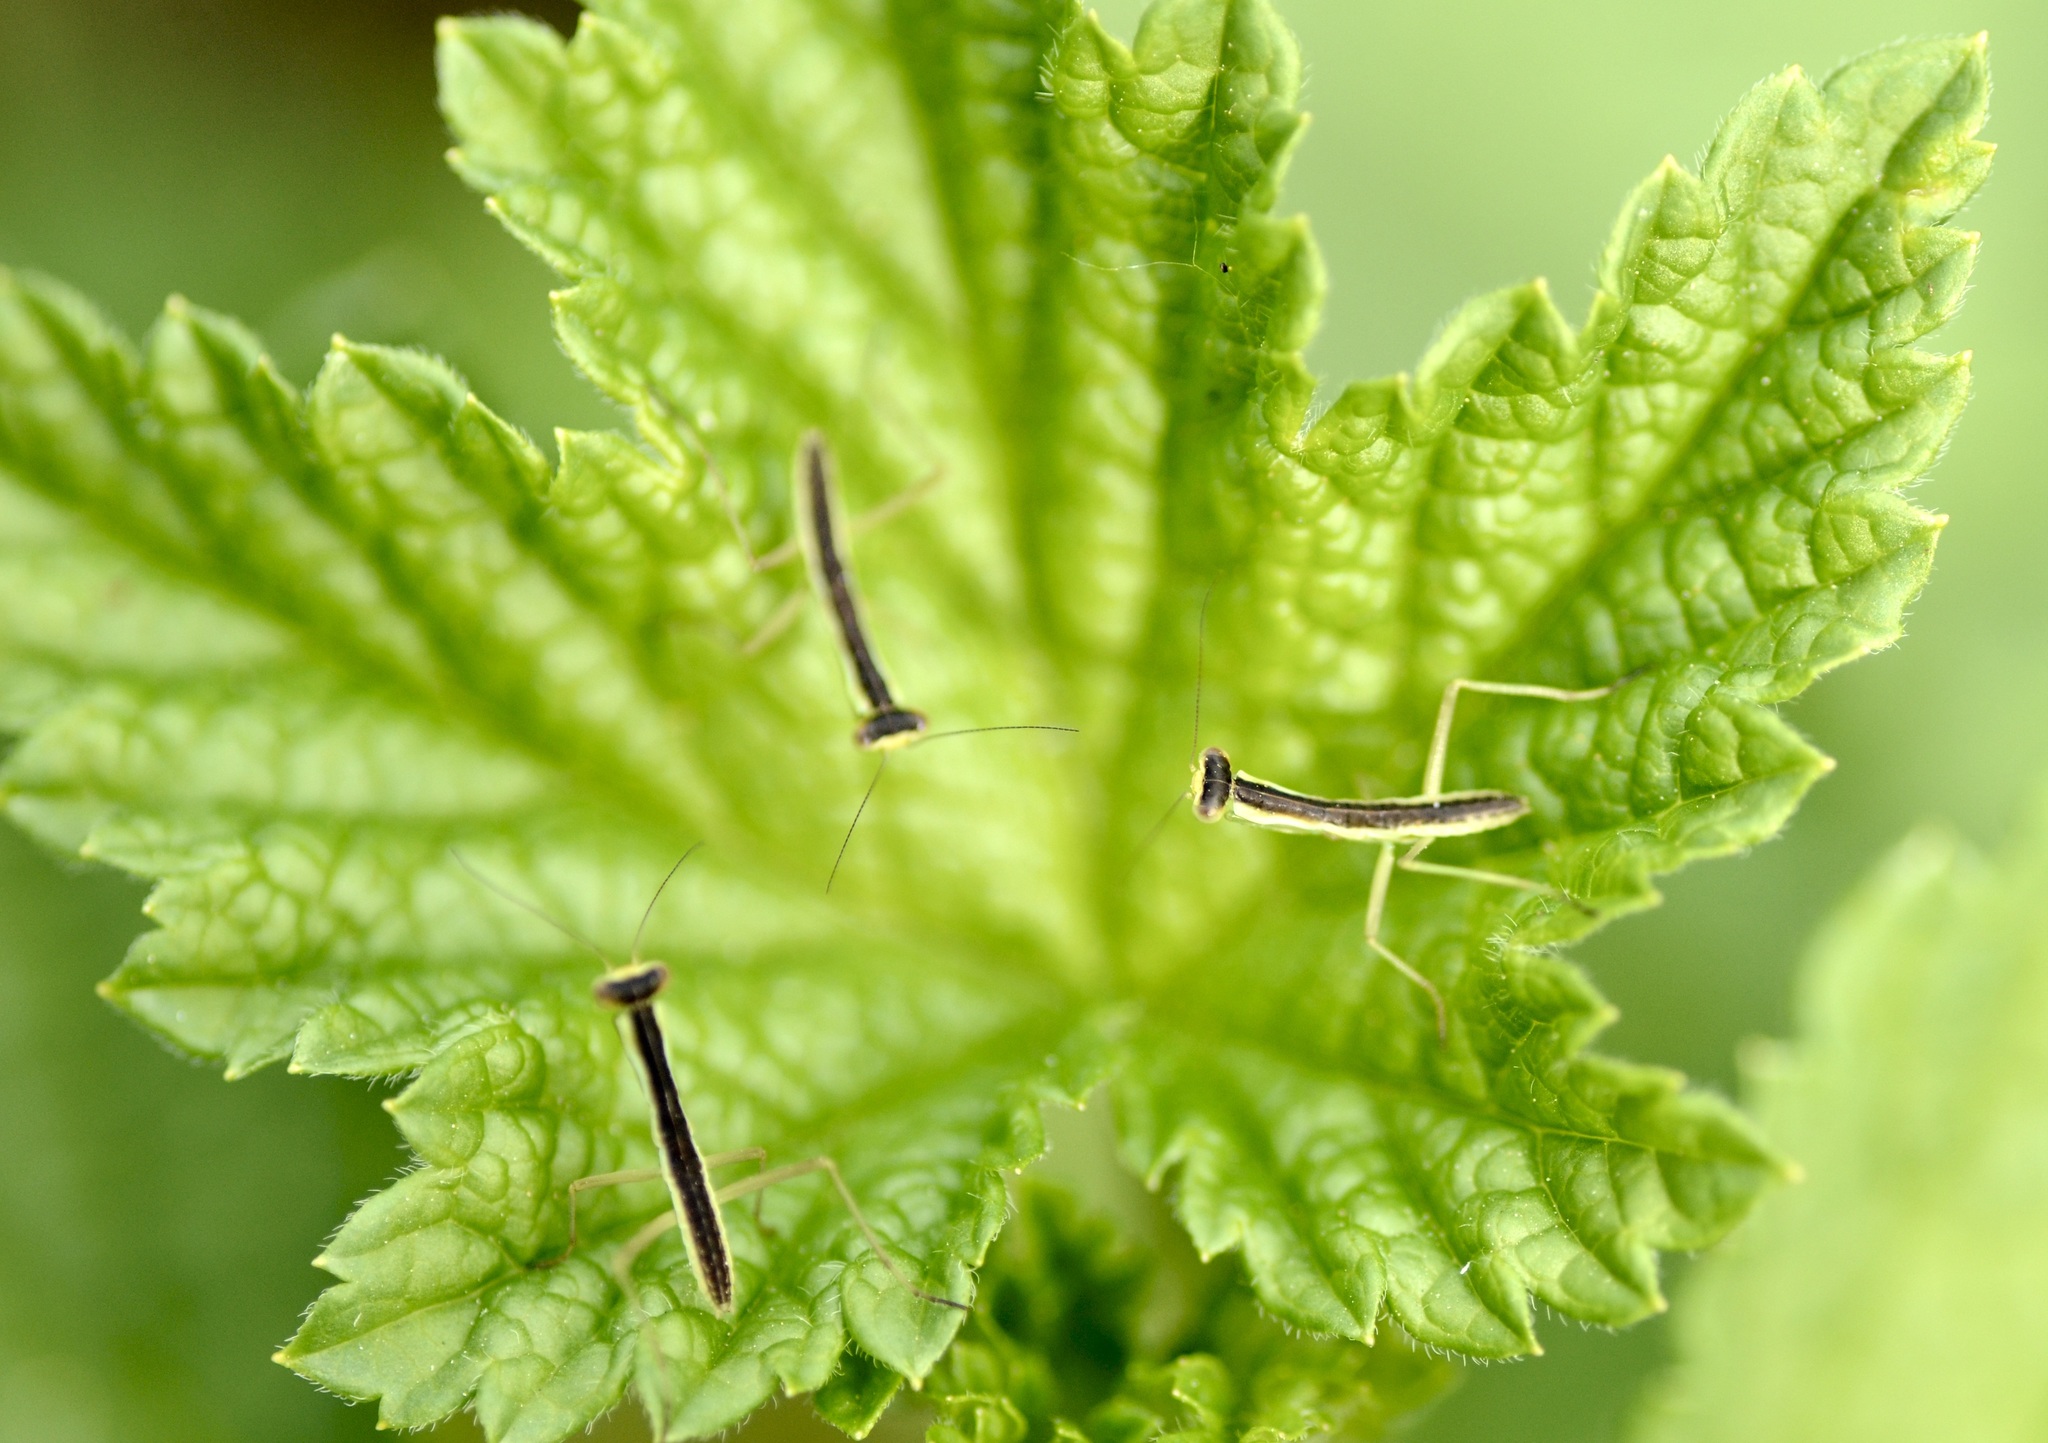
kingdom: Animalia
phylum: Arthropoda
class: Insecta
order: Mantodea
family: Mantidae
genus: Orthodera
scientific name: Orthodera novaezealandiae
